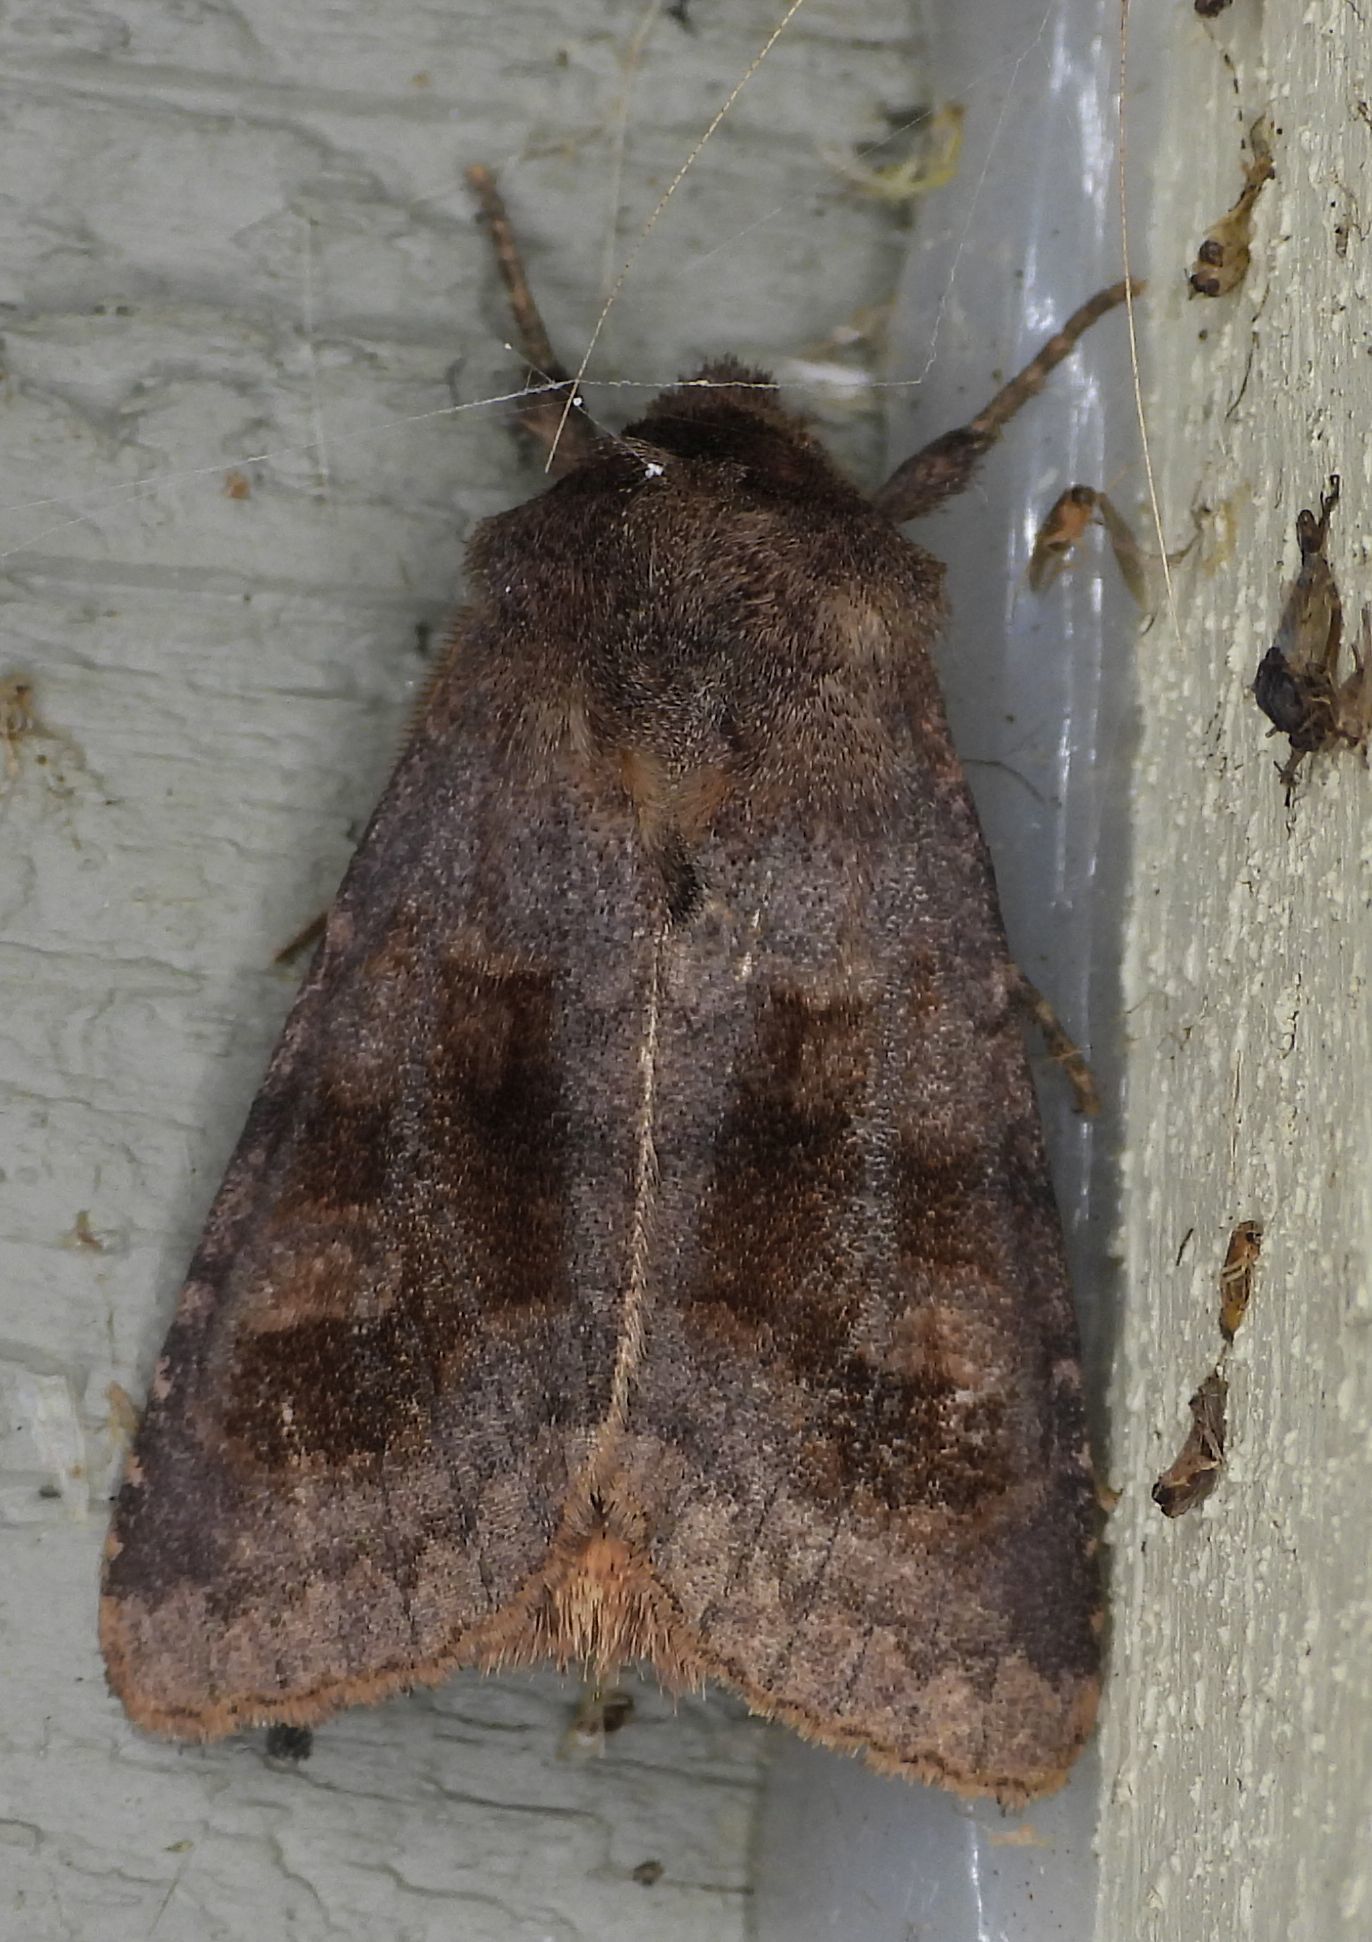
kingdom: Animalia
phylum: Arthropoda
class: Insecta
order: Lepidoptera
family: Noctuidae
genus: Nephelodes
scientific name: Nephelodes minians
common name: Bronzed cutworm
